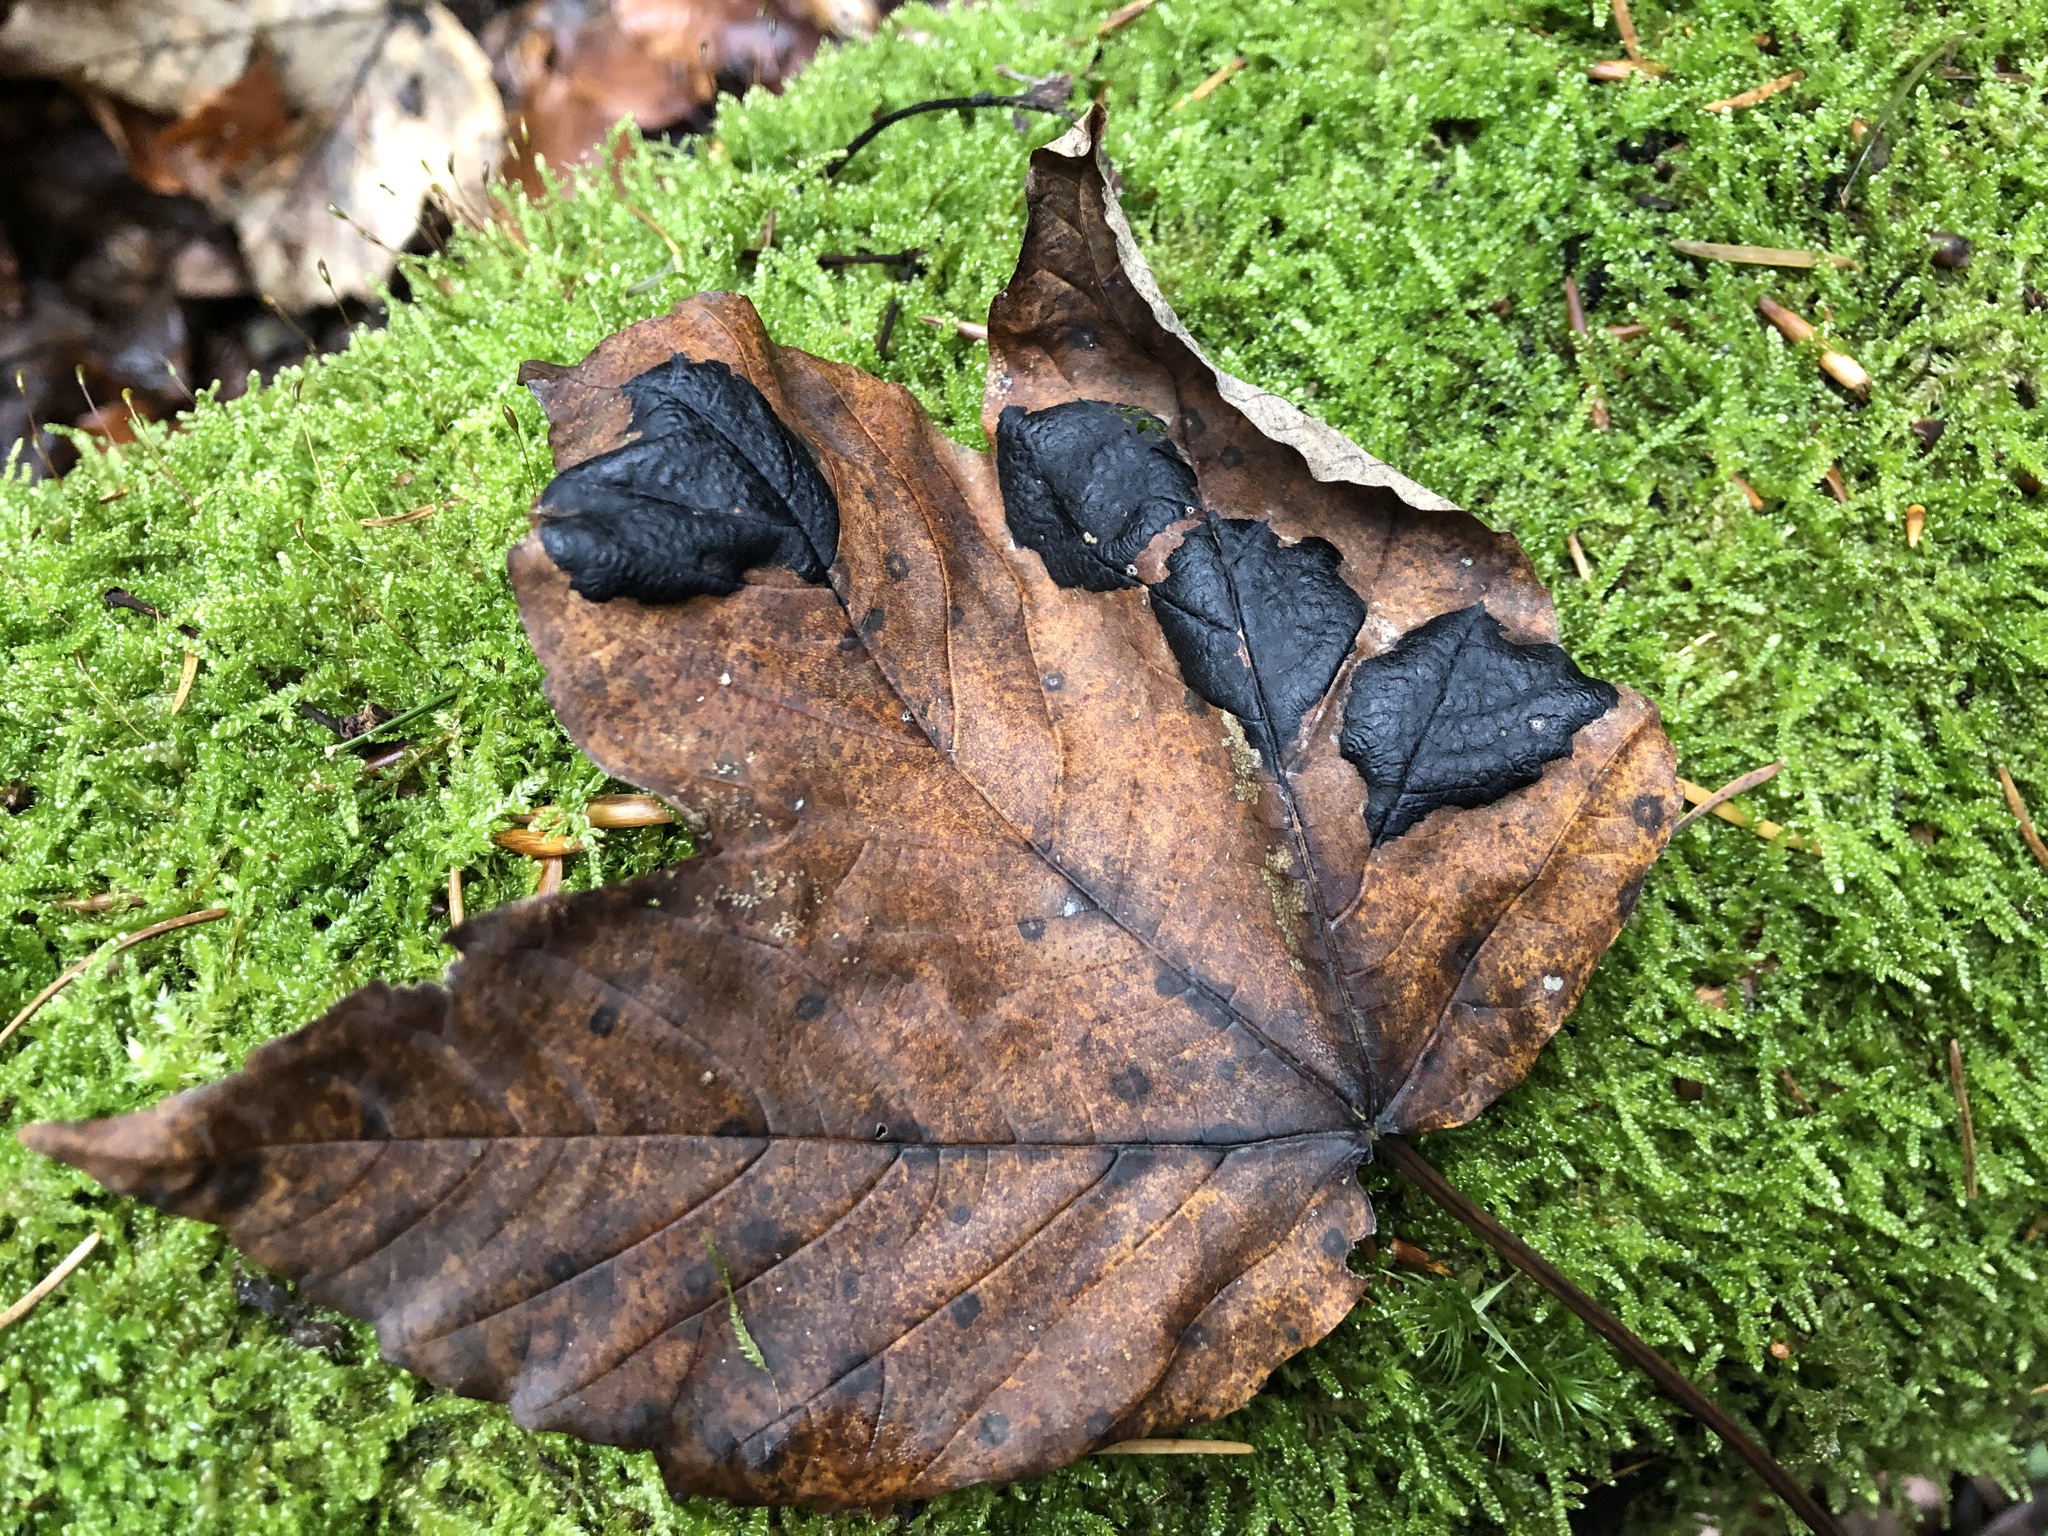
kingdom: Fungi
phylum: Ascomycota
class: Leotiomycetes
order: Rhytismatales
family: Rhytismataceae
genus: Rhytisma
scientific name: Rhytisma acerinum
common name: European tar spot
